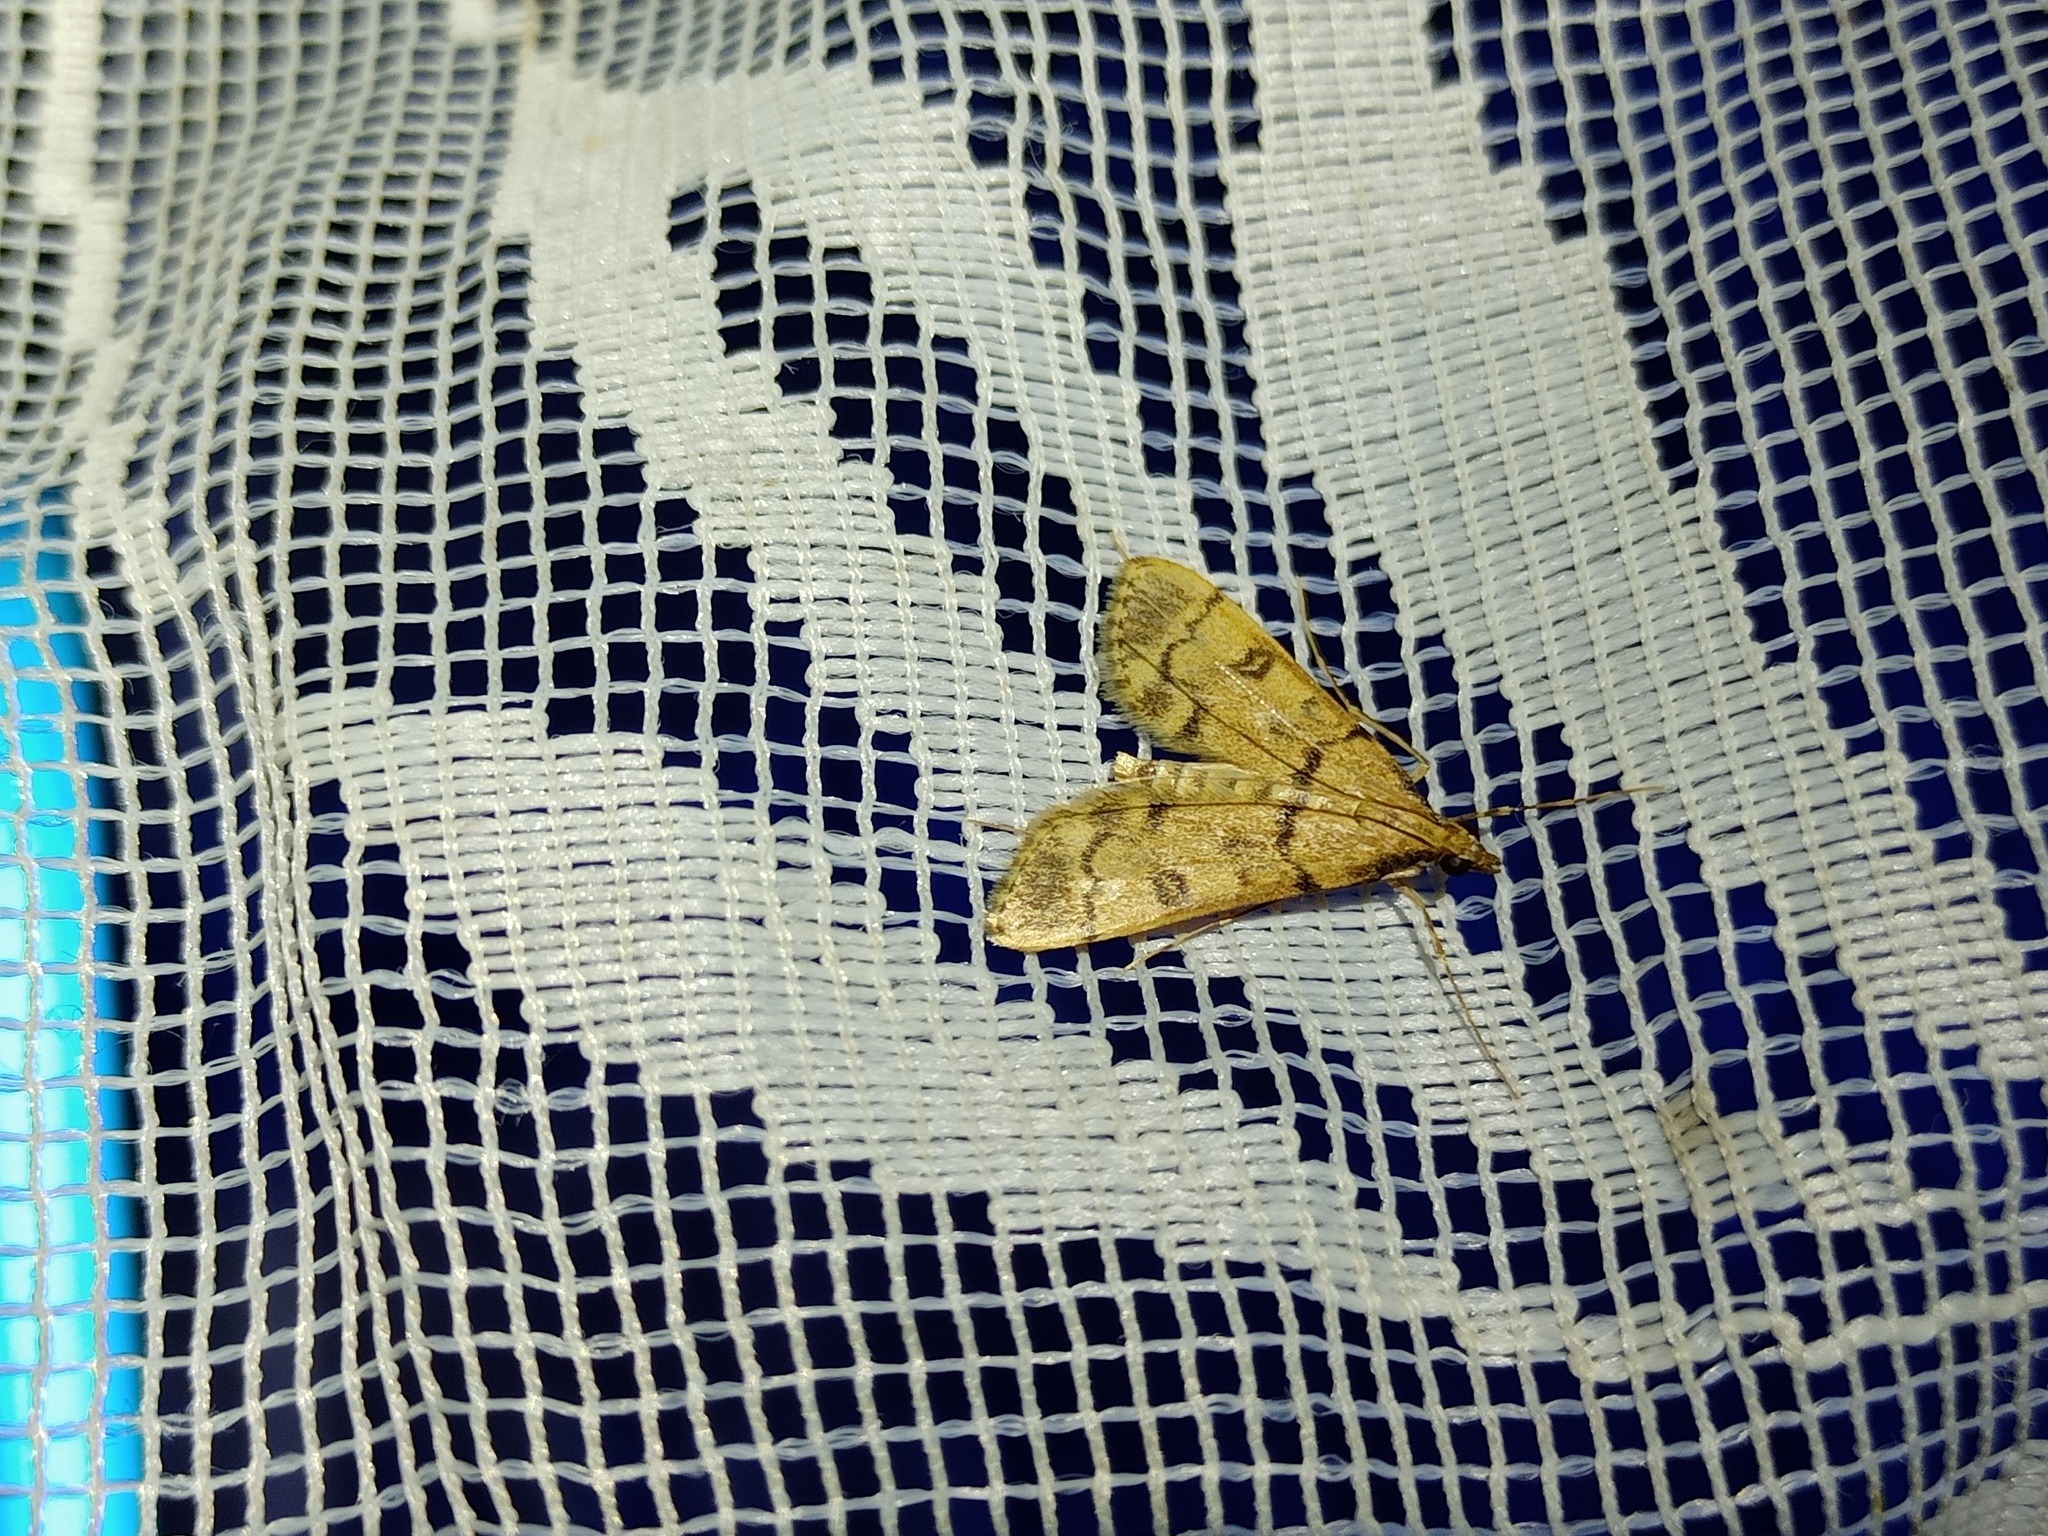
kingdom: Animalia
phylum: Arthropoda
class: Insecta
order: Lepidoptera
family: Crambidae
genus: Stenia
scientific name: Stenia daralis
